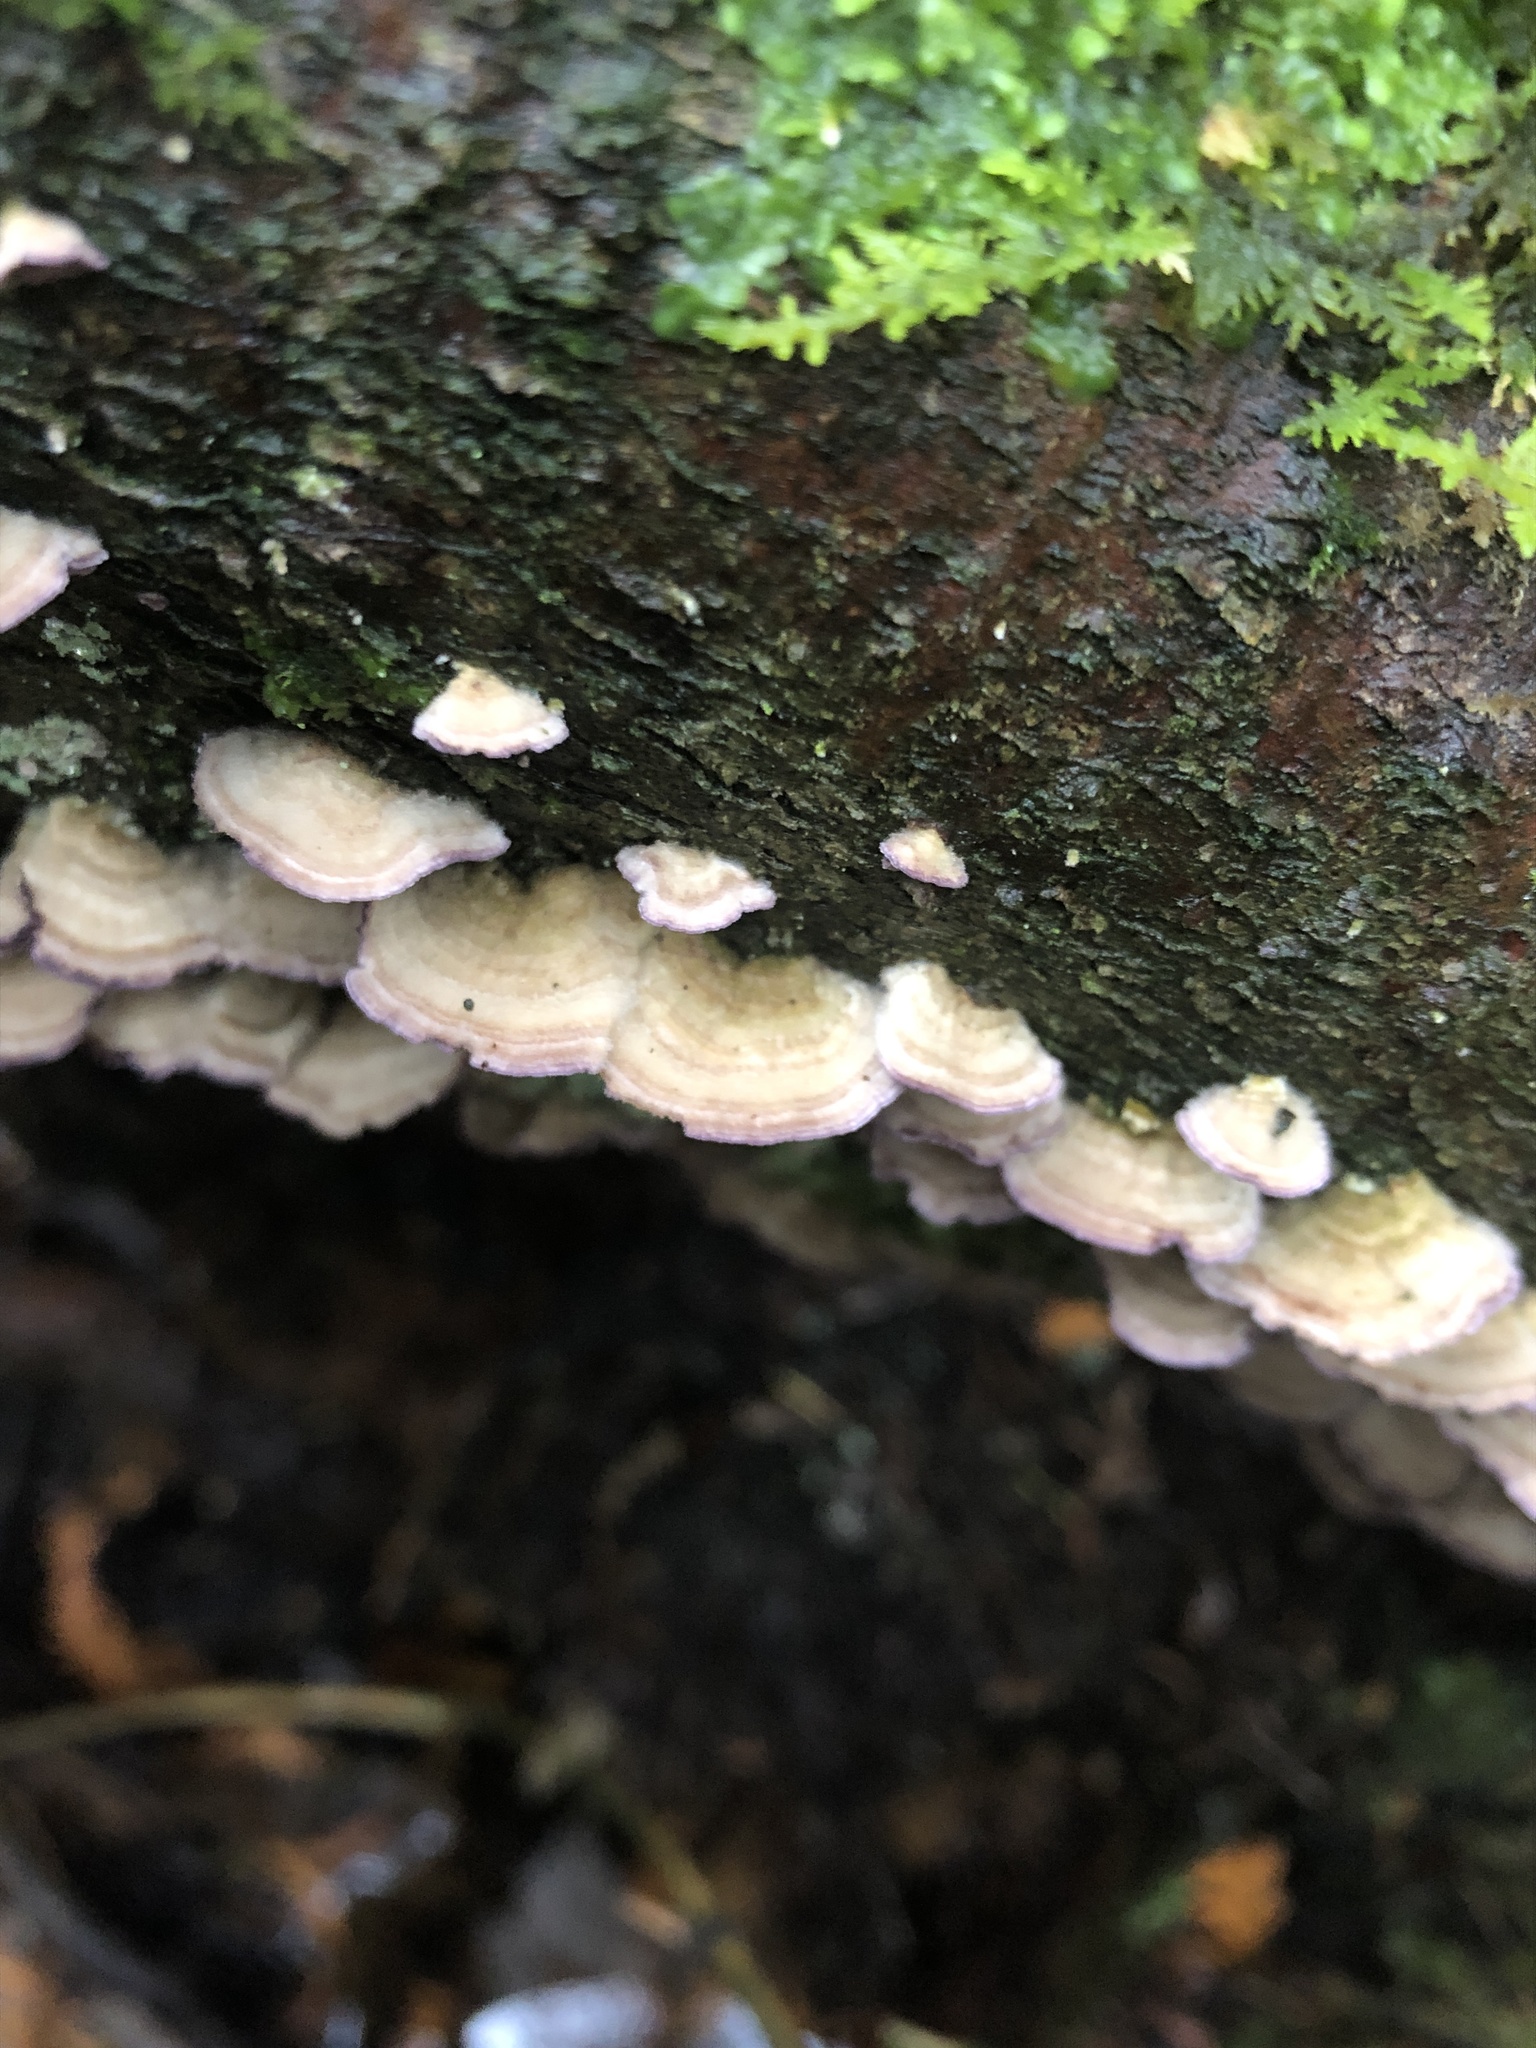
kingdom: Fungi
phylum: Basidiomycota
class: Agaricomycetes
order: Hymenochaetales
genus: Trichaptum
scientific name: Trichaptum biforme
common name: Violet-toothed polypore
